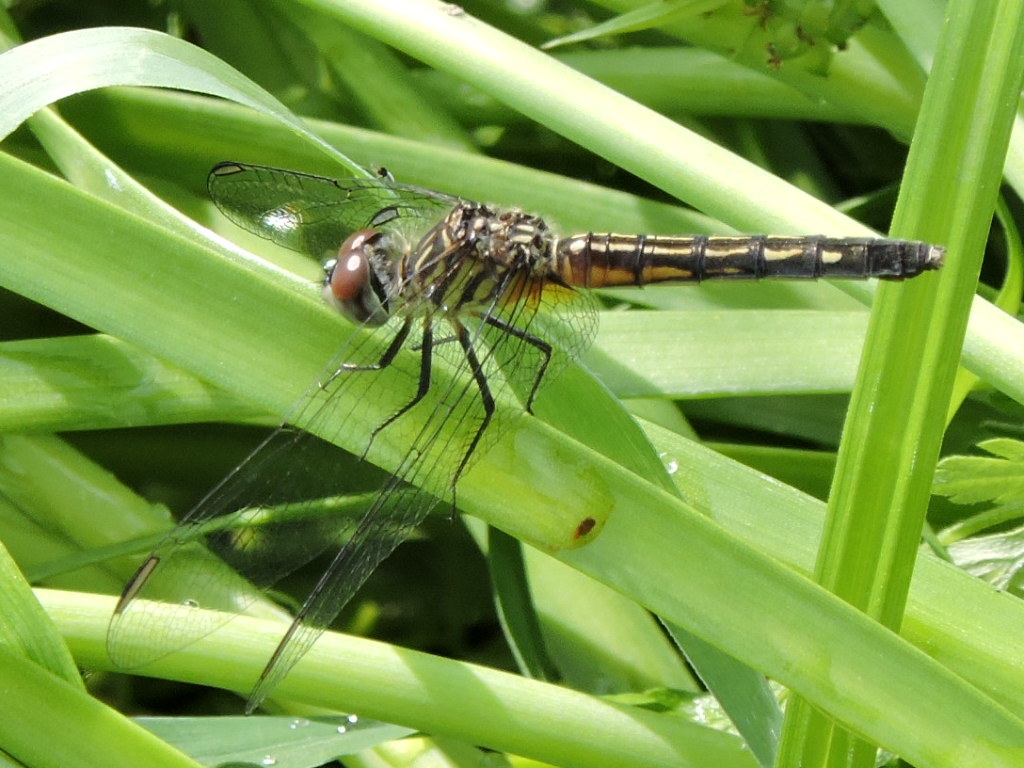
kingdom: Animalia
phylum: Arthropoda
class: Insecta
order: Odonata
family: Libellulidae
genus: Pachydiplax
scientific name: Pachydiplax longipennis
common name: Blue dasher
